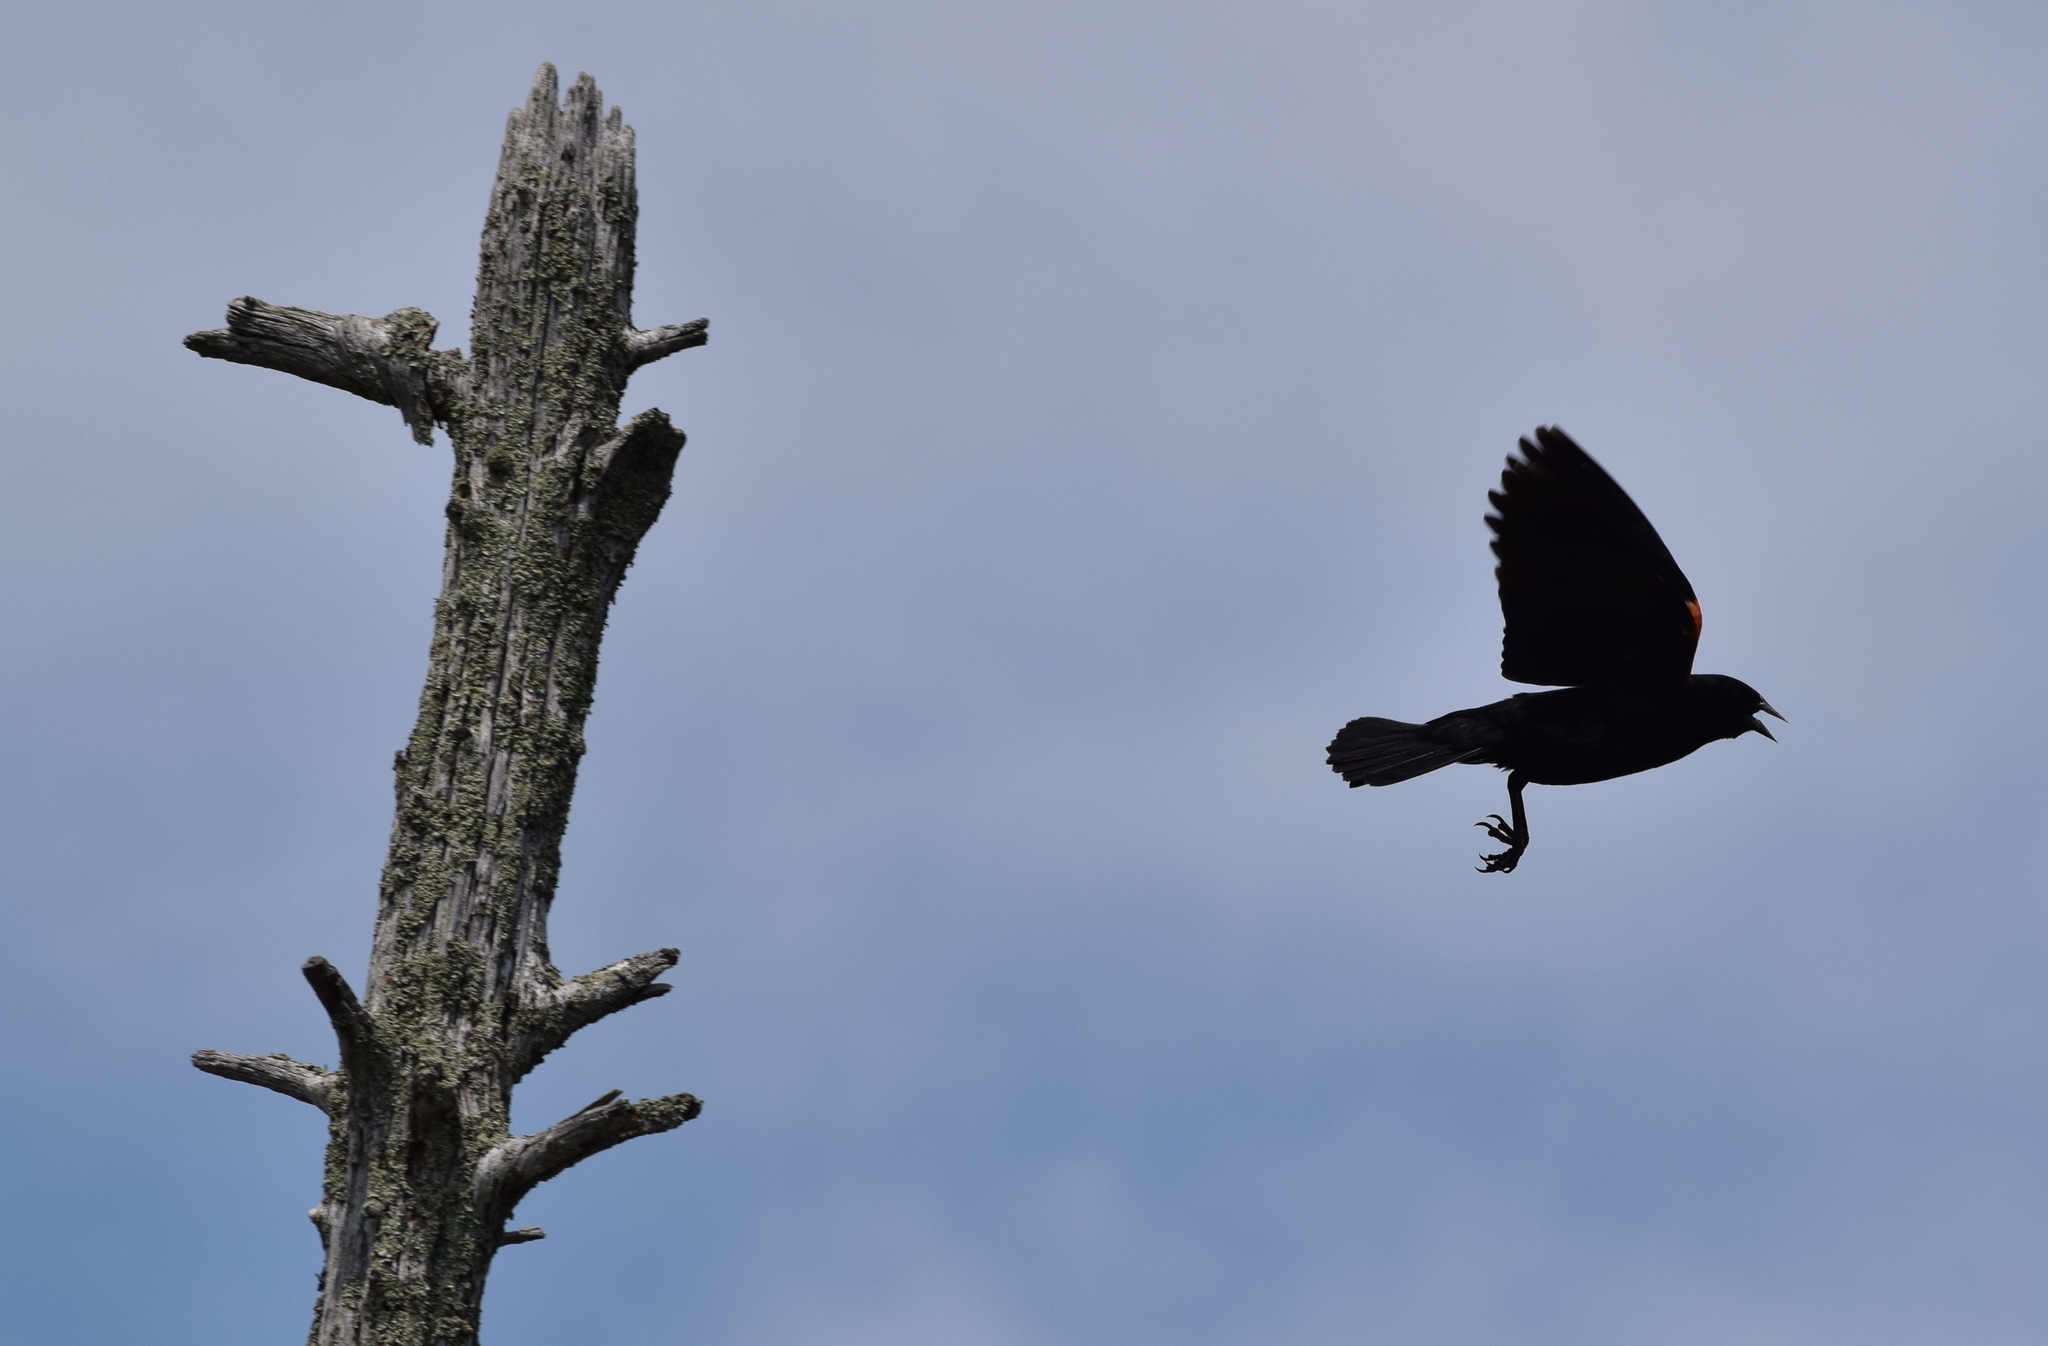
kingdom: Animalia
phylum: Chordata
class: Aves
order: Passeriformes
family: Icteridae
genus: Agelaius
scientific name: Agelaius phoeniceus
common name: Red-winged blackbird
